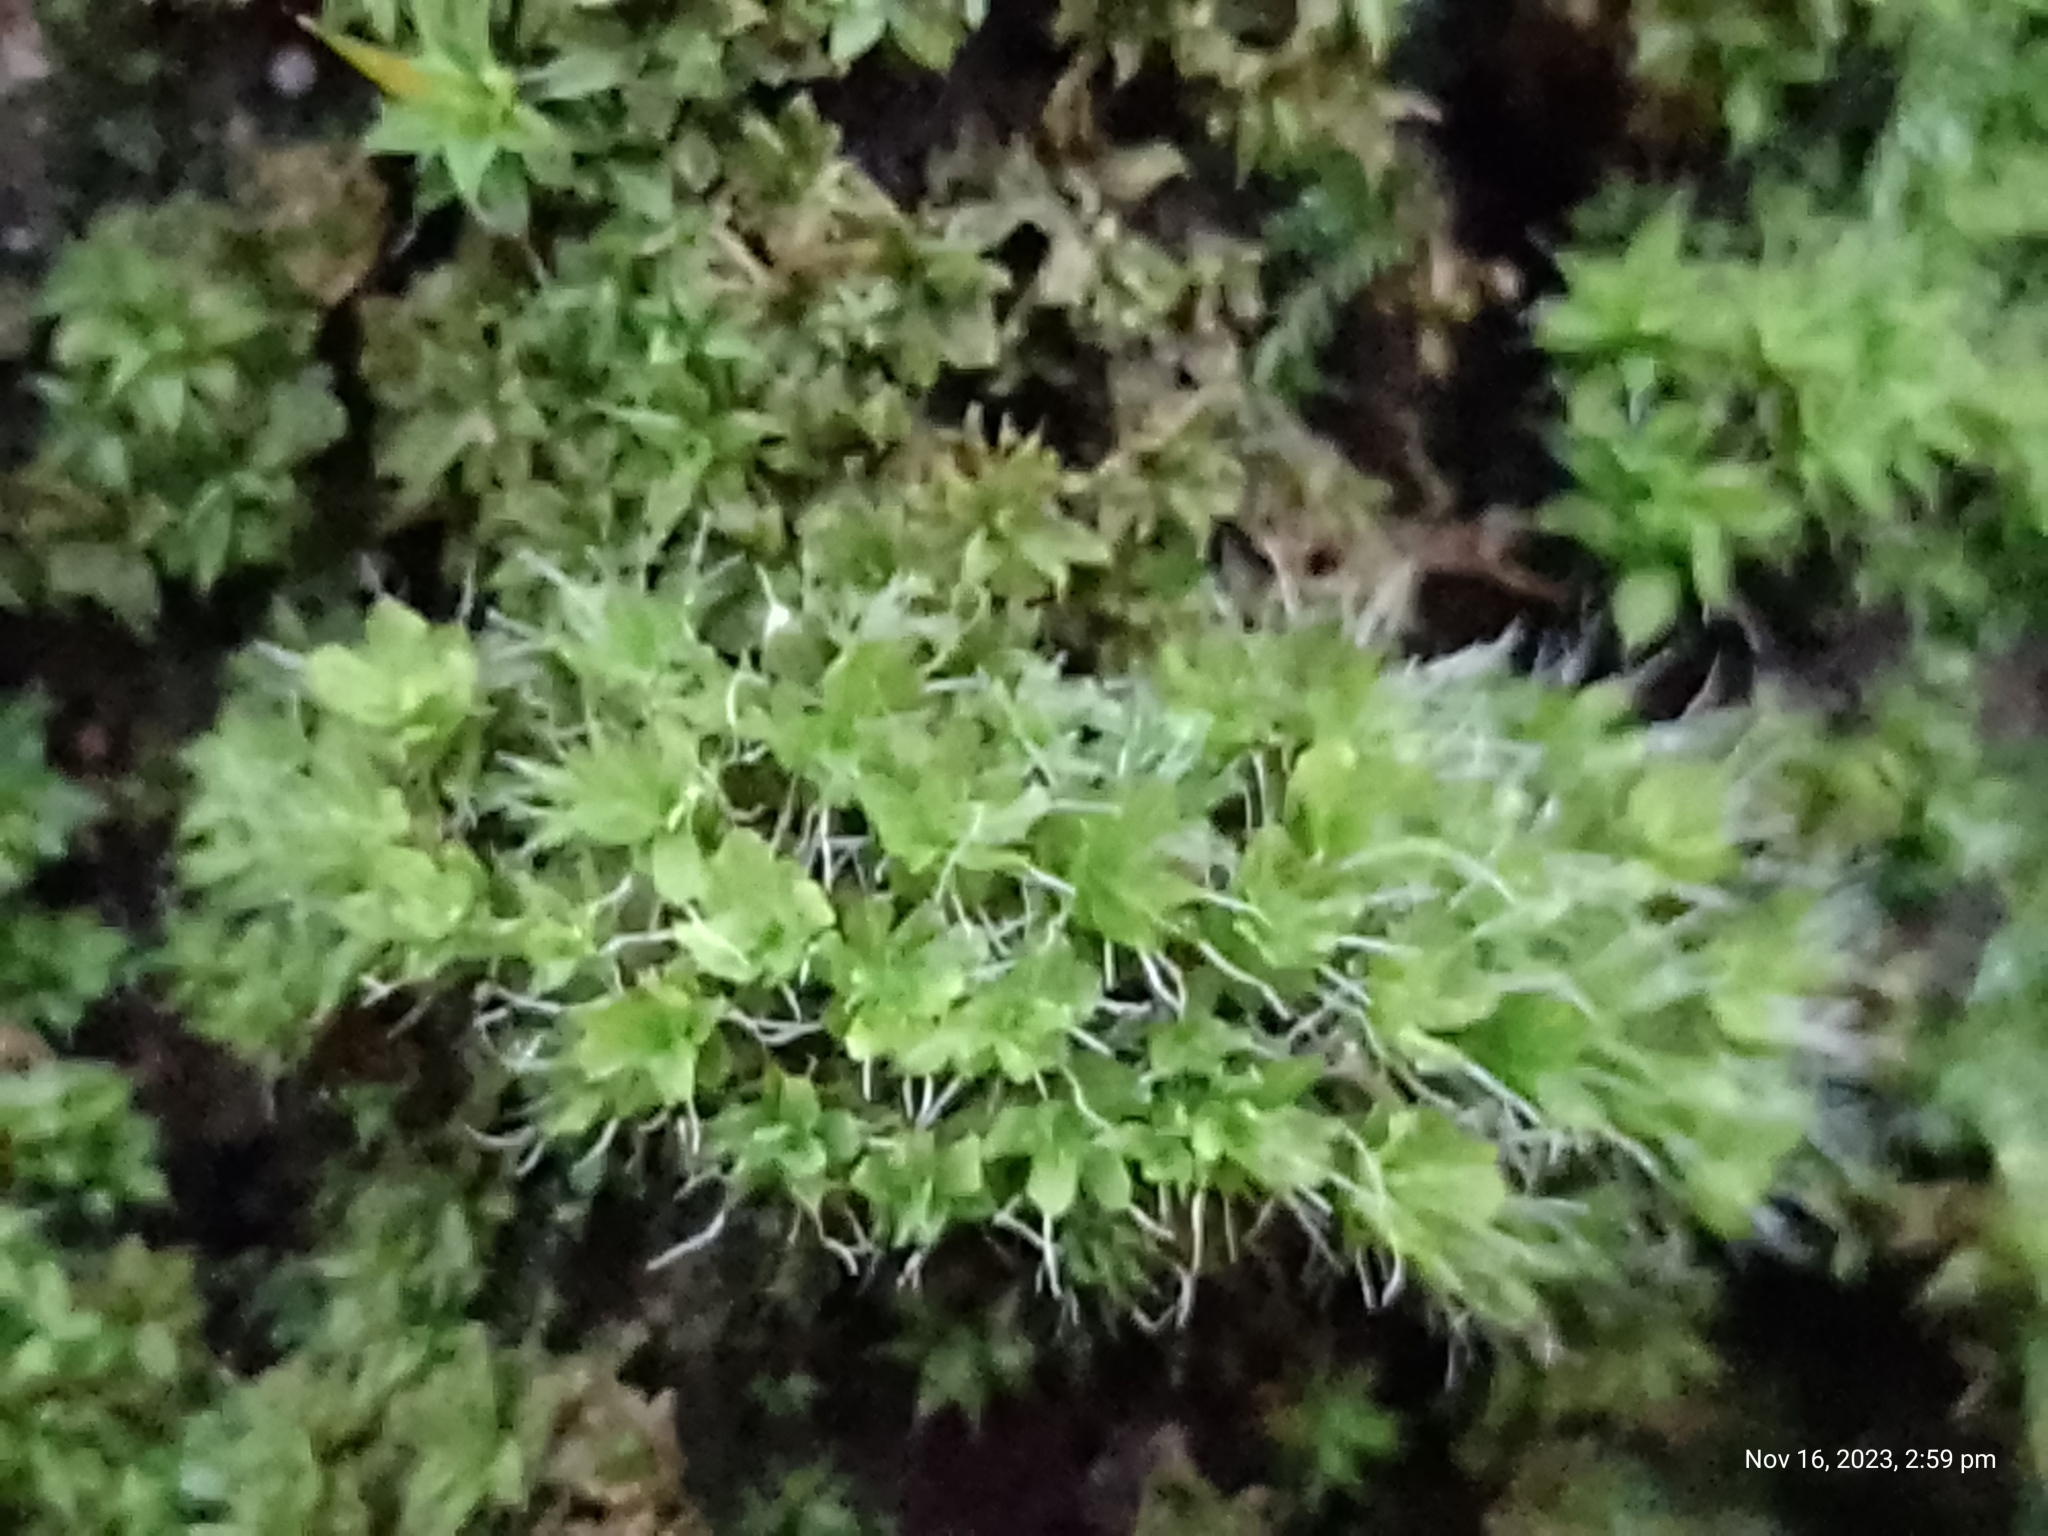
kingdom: Plantae
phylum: Bryophyta
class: Bryopsida
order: Pottiales
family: Pottiaceae
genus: Syntrichia
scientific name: Syntrichia montana
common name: Intermediate screw-moss
